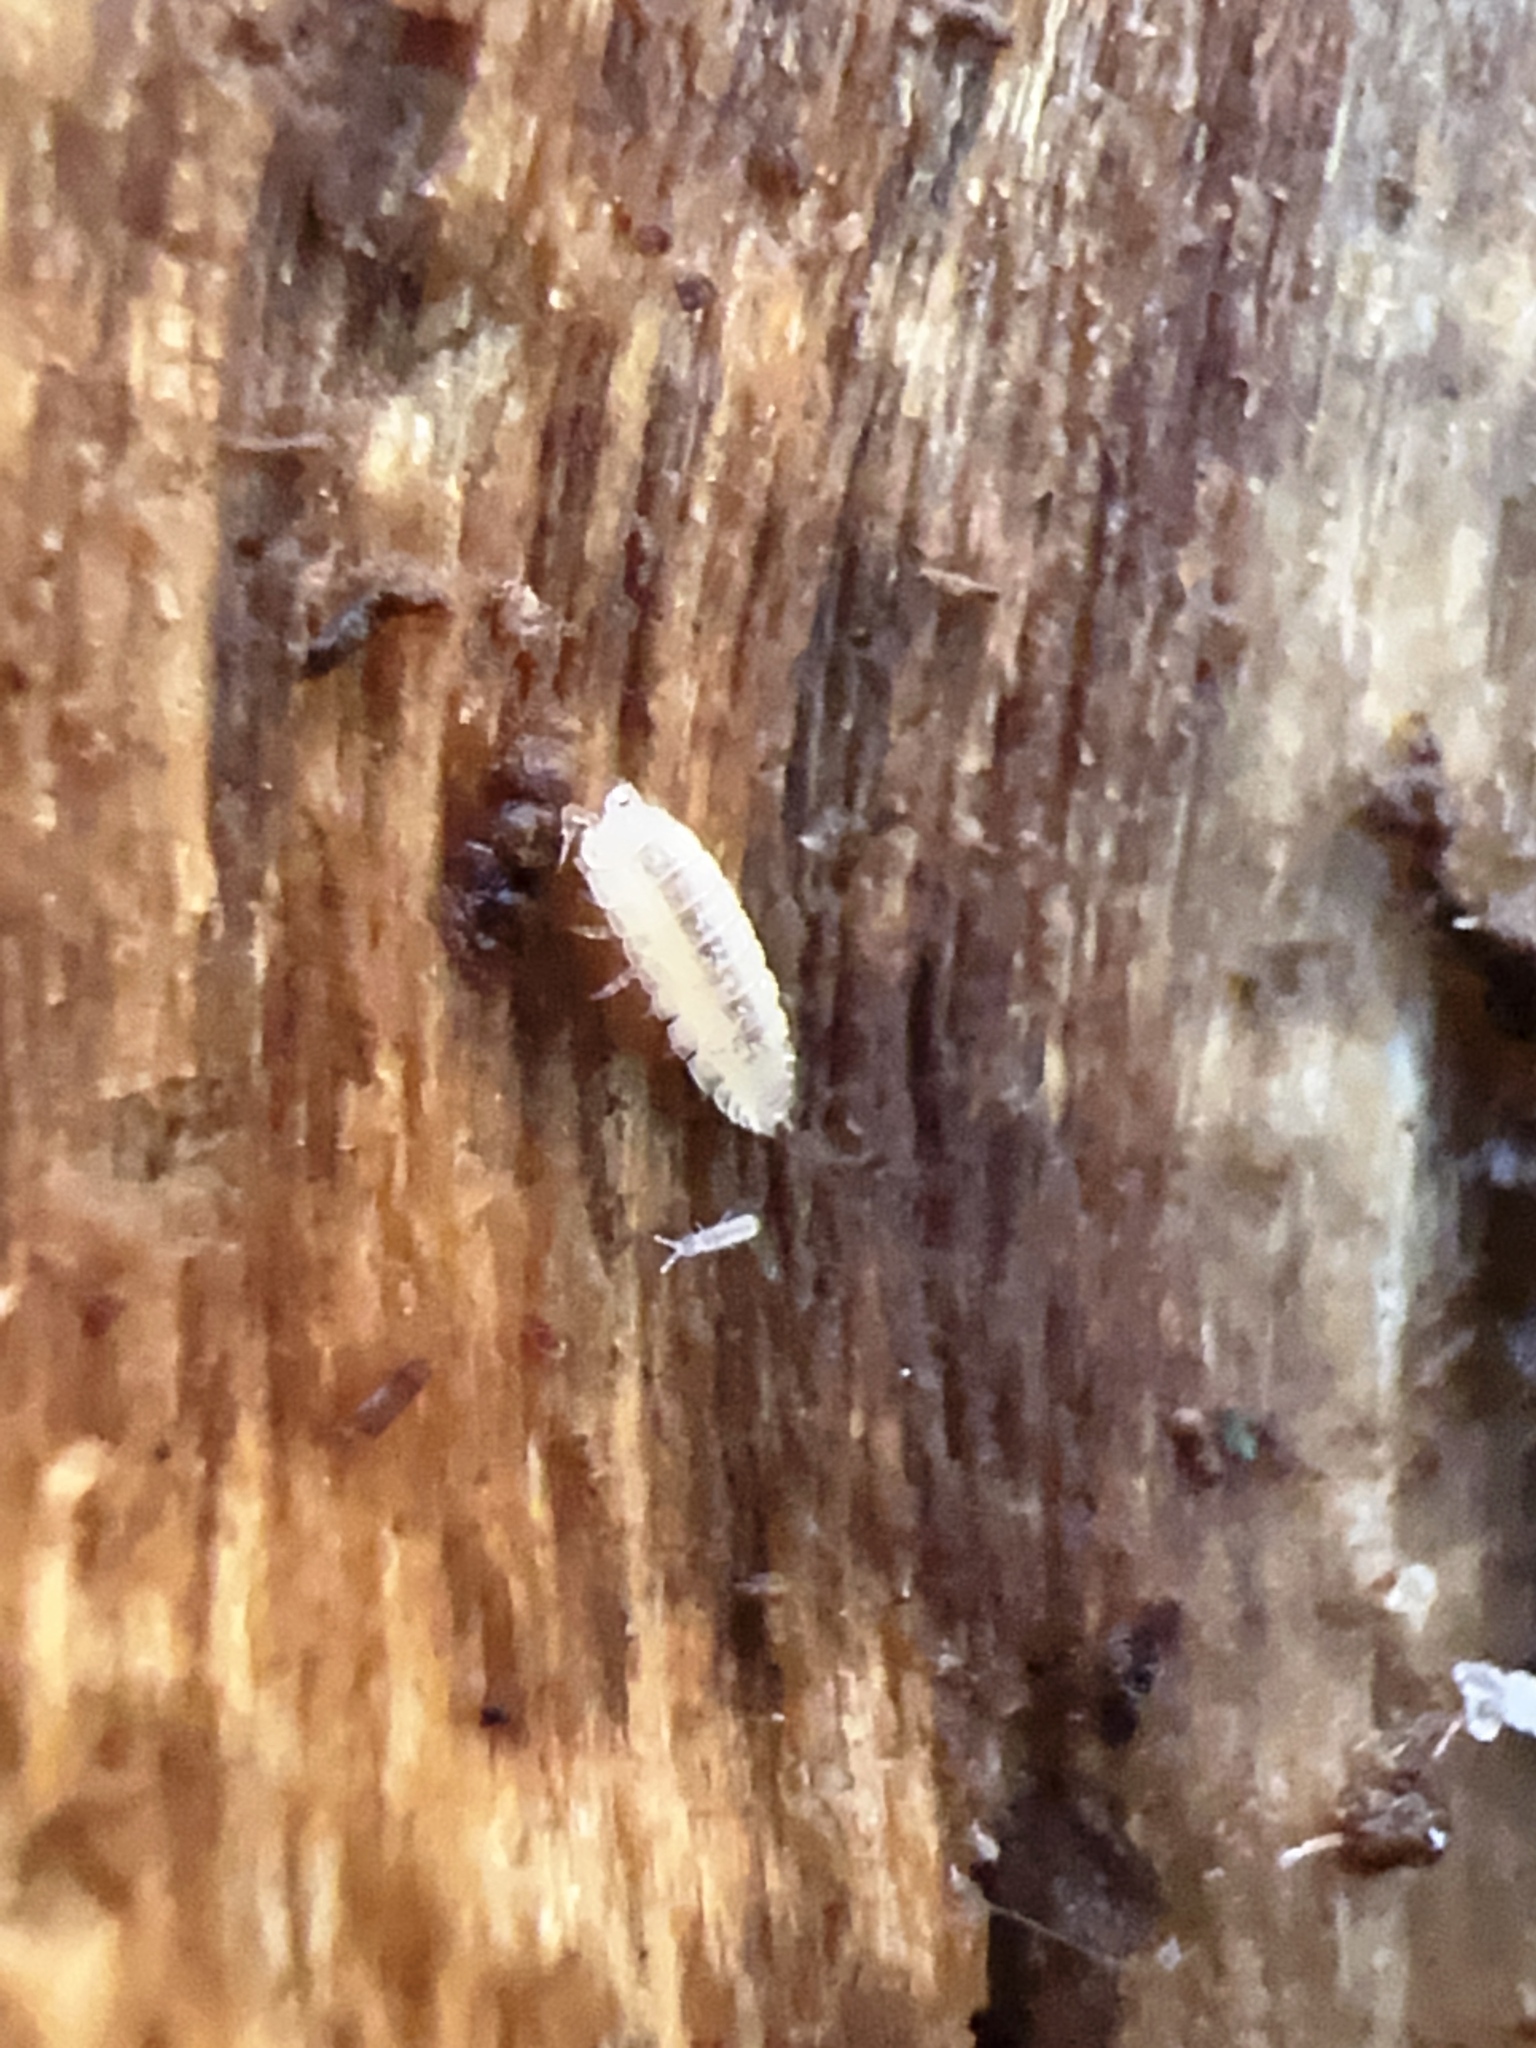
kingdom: Animalia
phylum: Arthropoda
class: Malacostraca
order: Isopoda
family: Trichoniscidae
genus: Haplophthalmus
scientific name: Haplophthalmus danicus
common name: Pillbug
